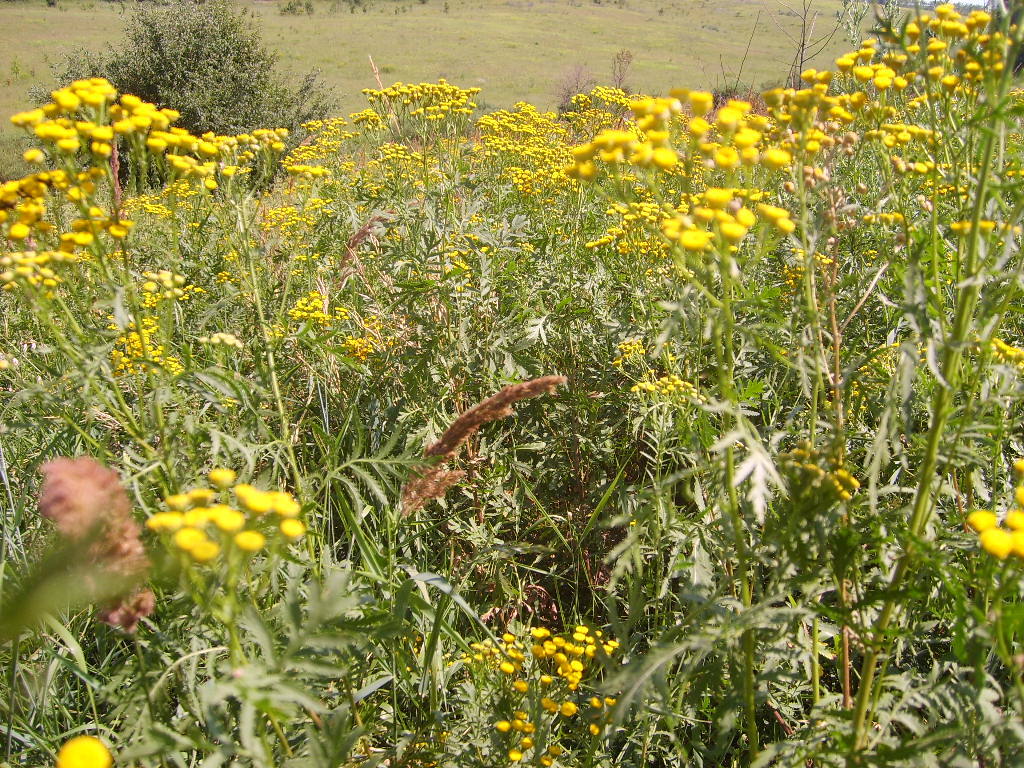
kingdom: Plantae
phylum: Tracheophyta
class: Magnoliopsida
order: Asterales
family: Asteraceae
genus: Tanacetum
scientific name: Tanacetum vulgare
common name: Common tansy
